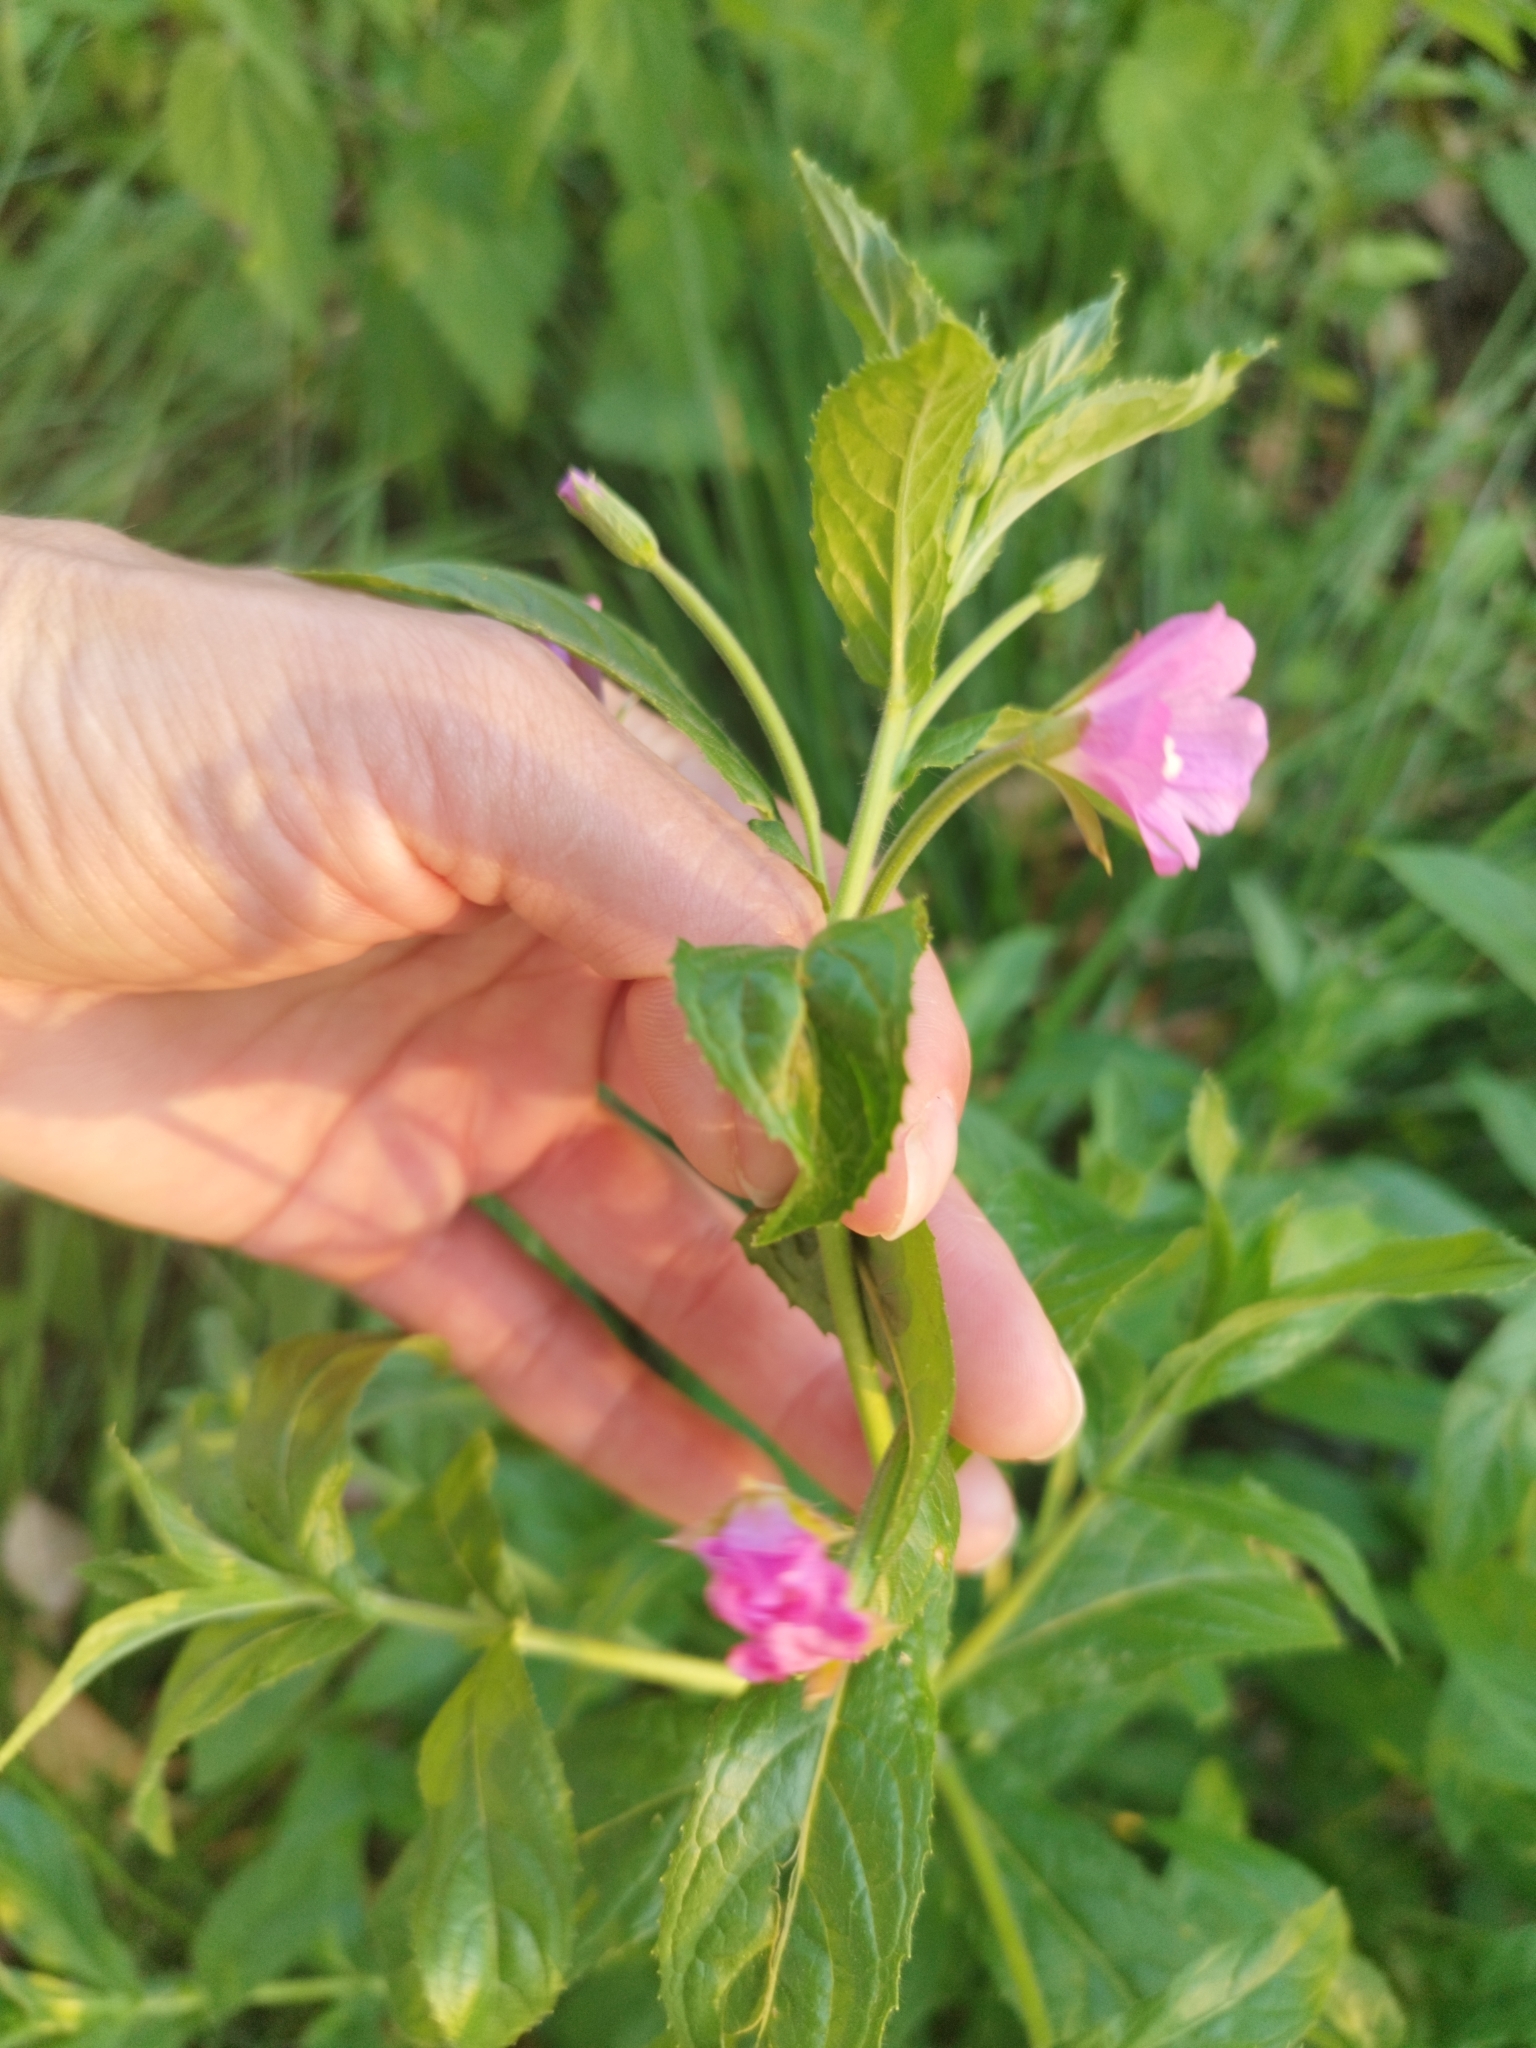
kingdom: Plantae
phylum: Tracheophyta
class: Magnoliopsida
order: Myrtales
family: Onagraceae
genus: Epilobium
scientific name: Epilobium hirsutum
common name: Great willowherb
